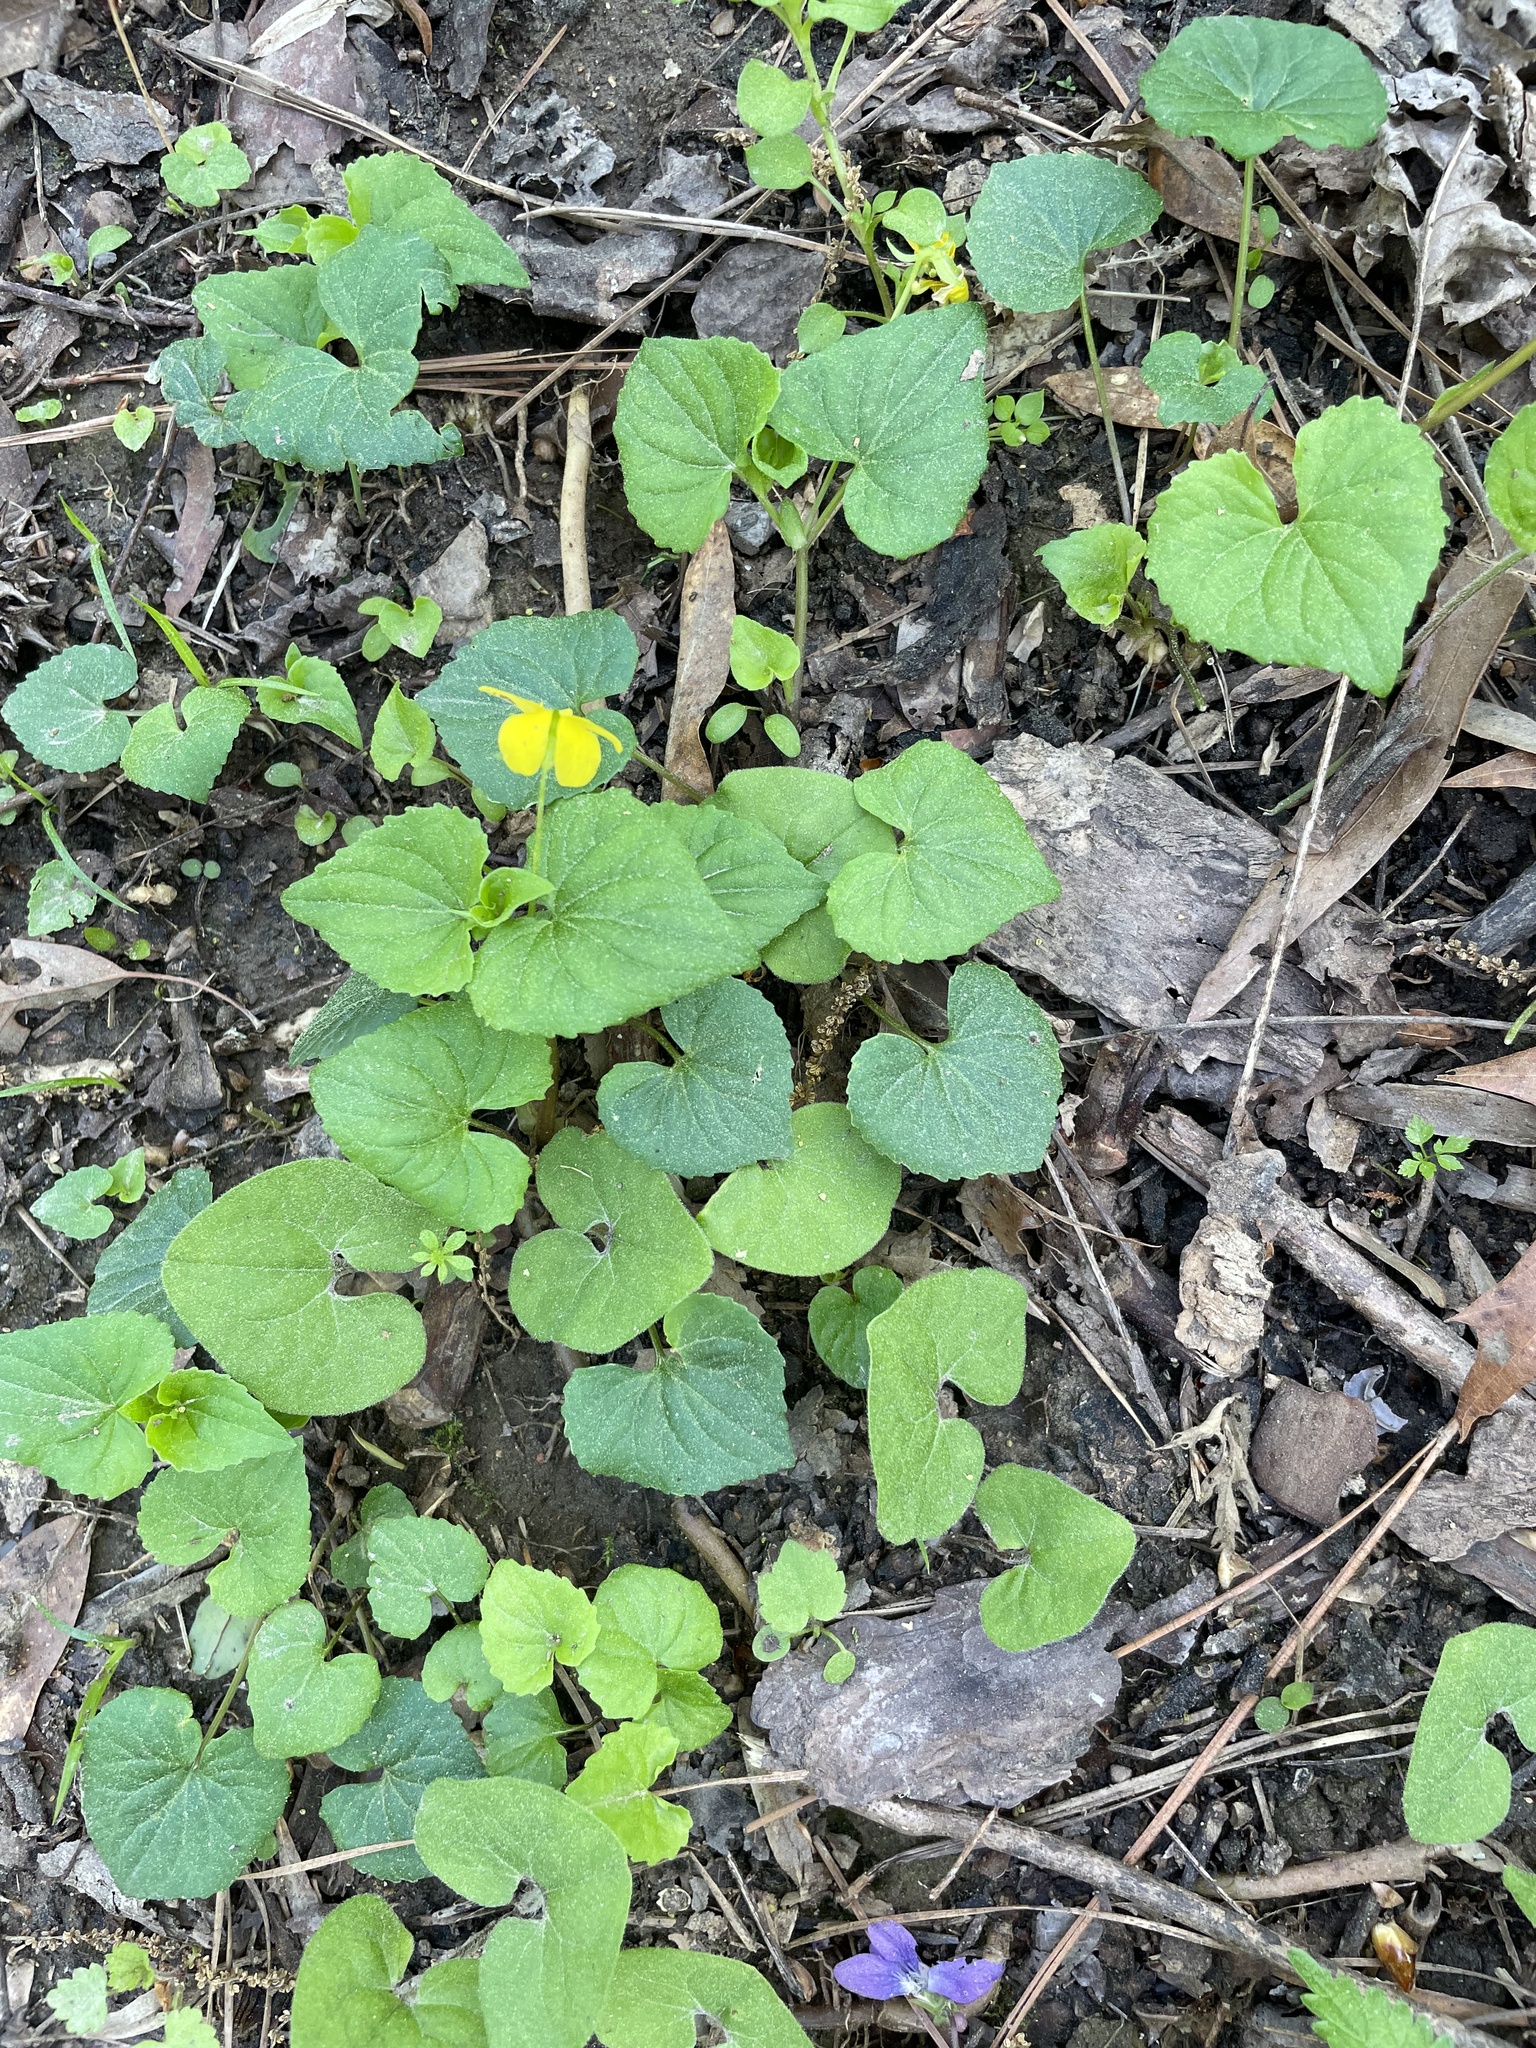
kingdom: Plantae
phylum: Tracheophyta
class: Magnoliopsida
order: Malpighiales
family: Violaceae
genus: Viola
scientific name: Viola eriocarpa
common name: Smooth yellow violet
